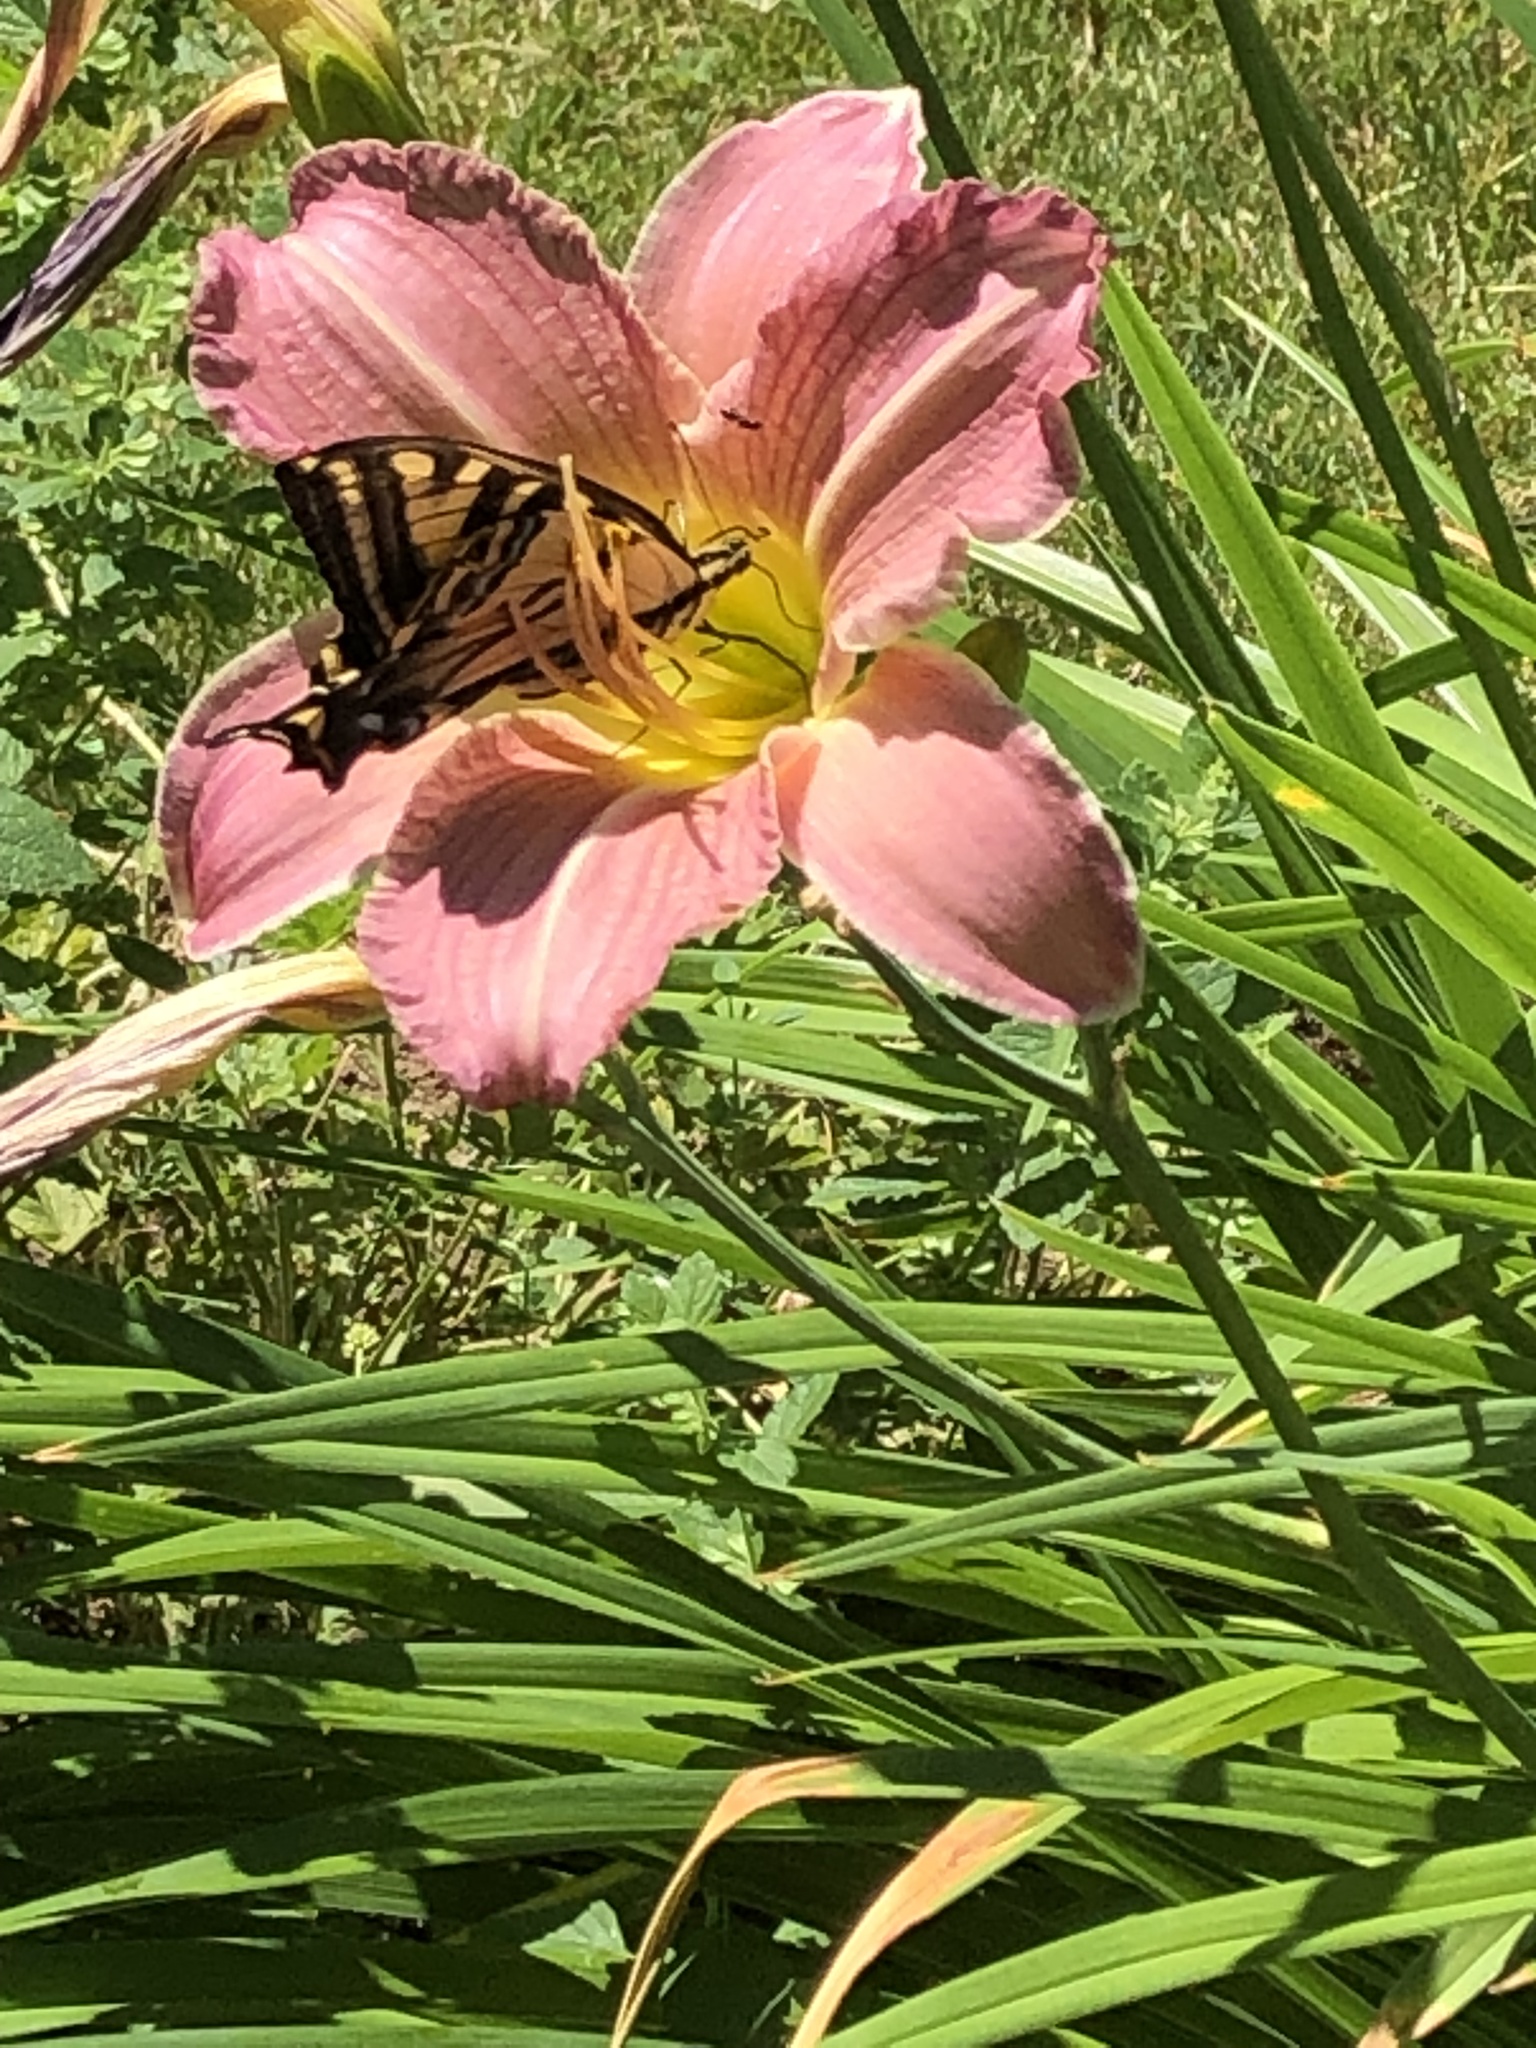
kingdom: Animalia
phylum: Arthropoda
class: Insecta
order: Lepidoptera
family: Papilionidae
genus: Papilio
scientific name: Papilio rutulus
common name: Western tiger swallowtail
